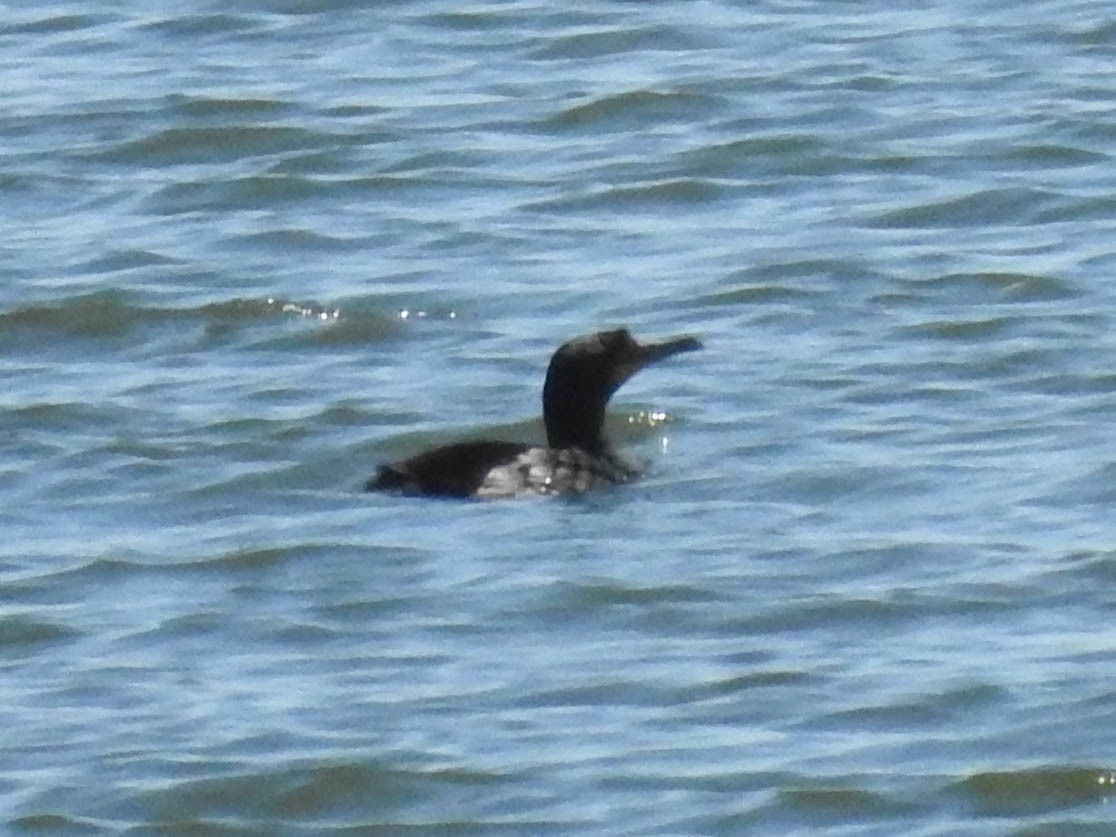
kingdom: Animalia
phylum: Chordata
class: Aves
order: Suliformes
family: Phalacrocoracidae
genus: Phalacrocorax
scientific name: Phalacrocorax auritus
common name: Double-crested cormorant
